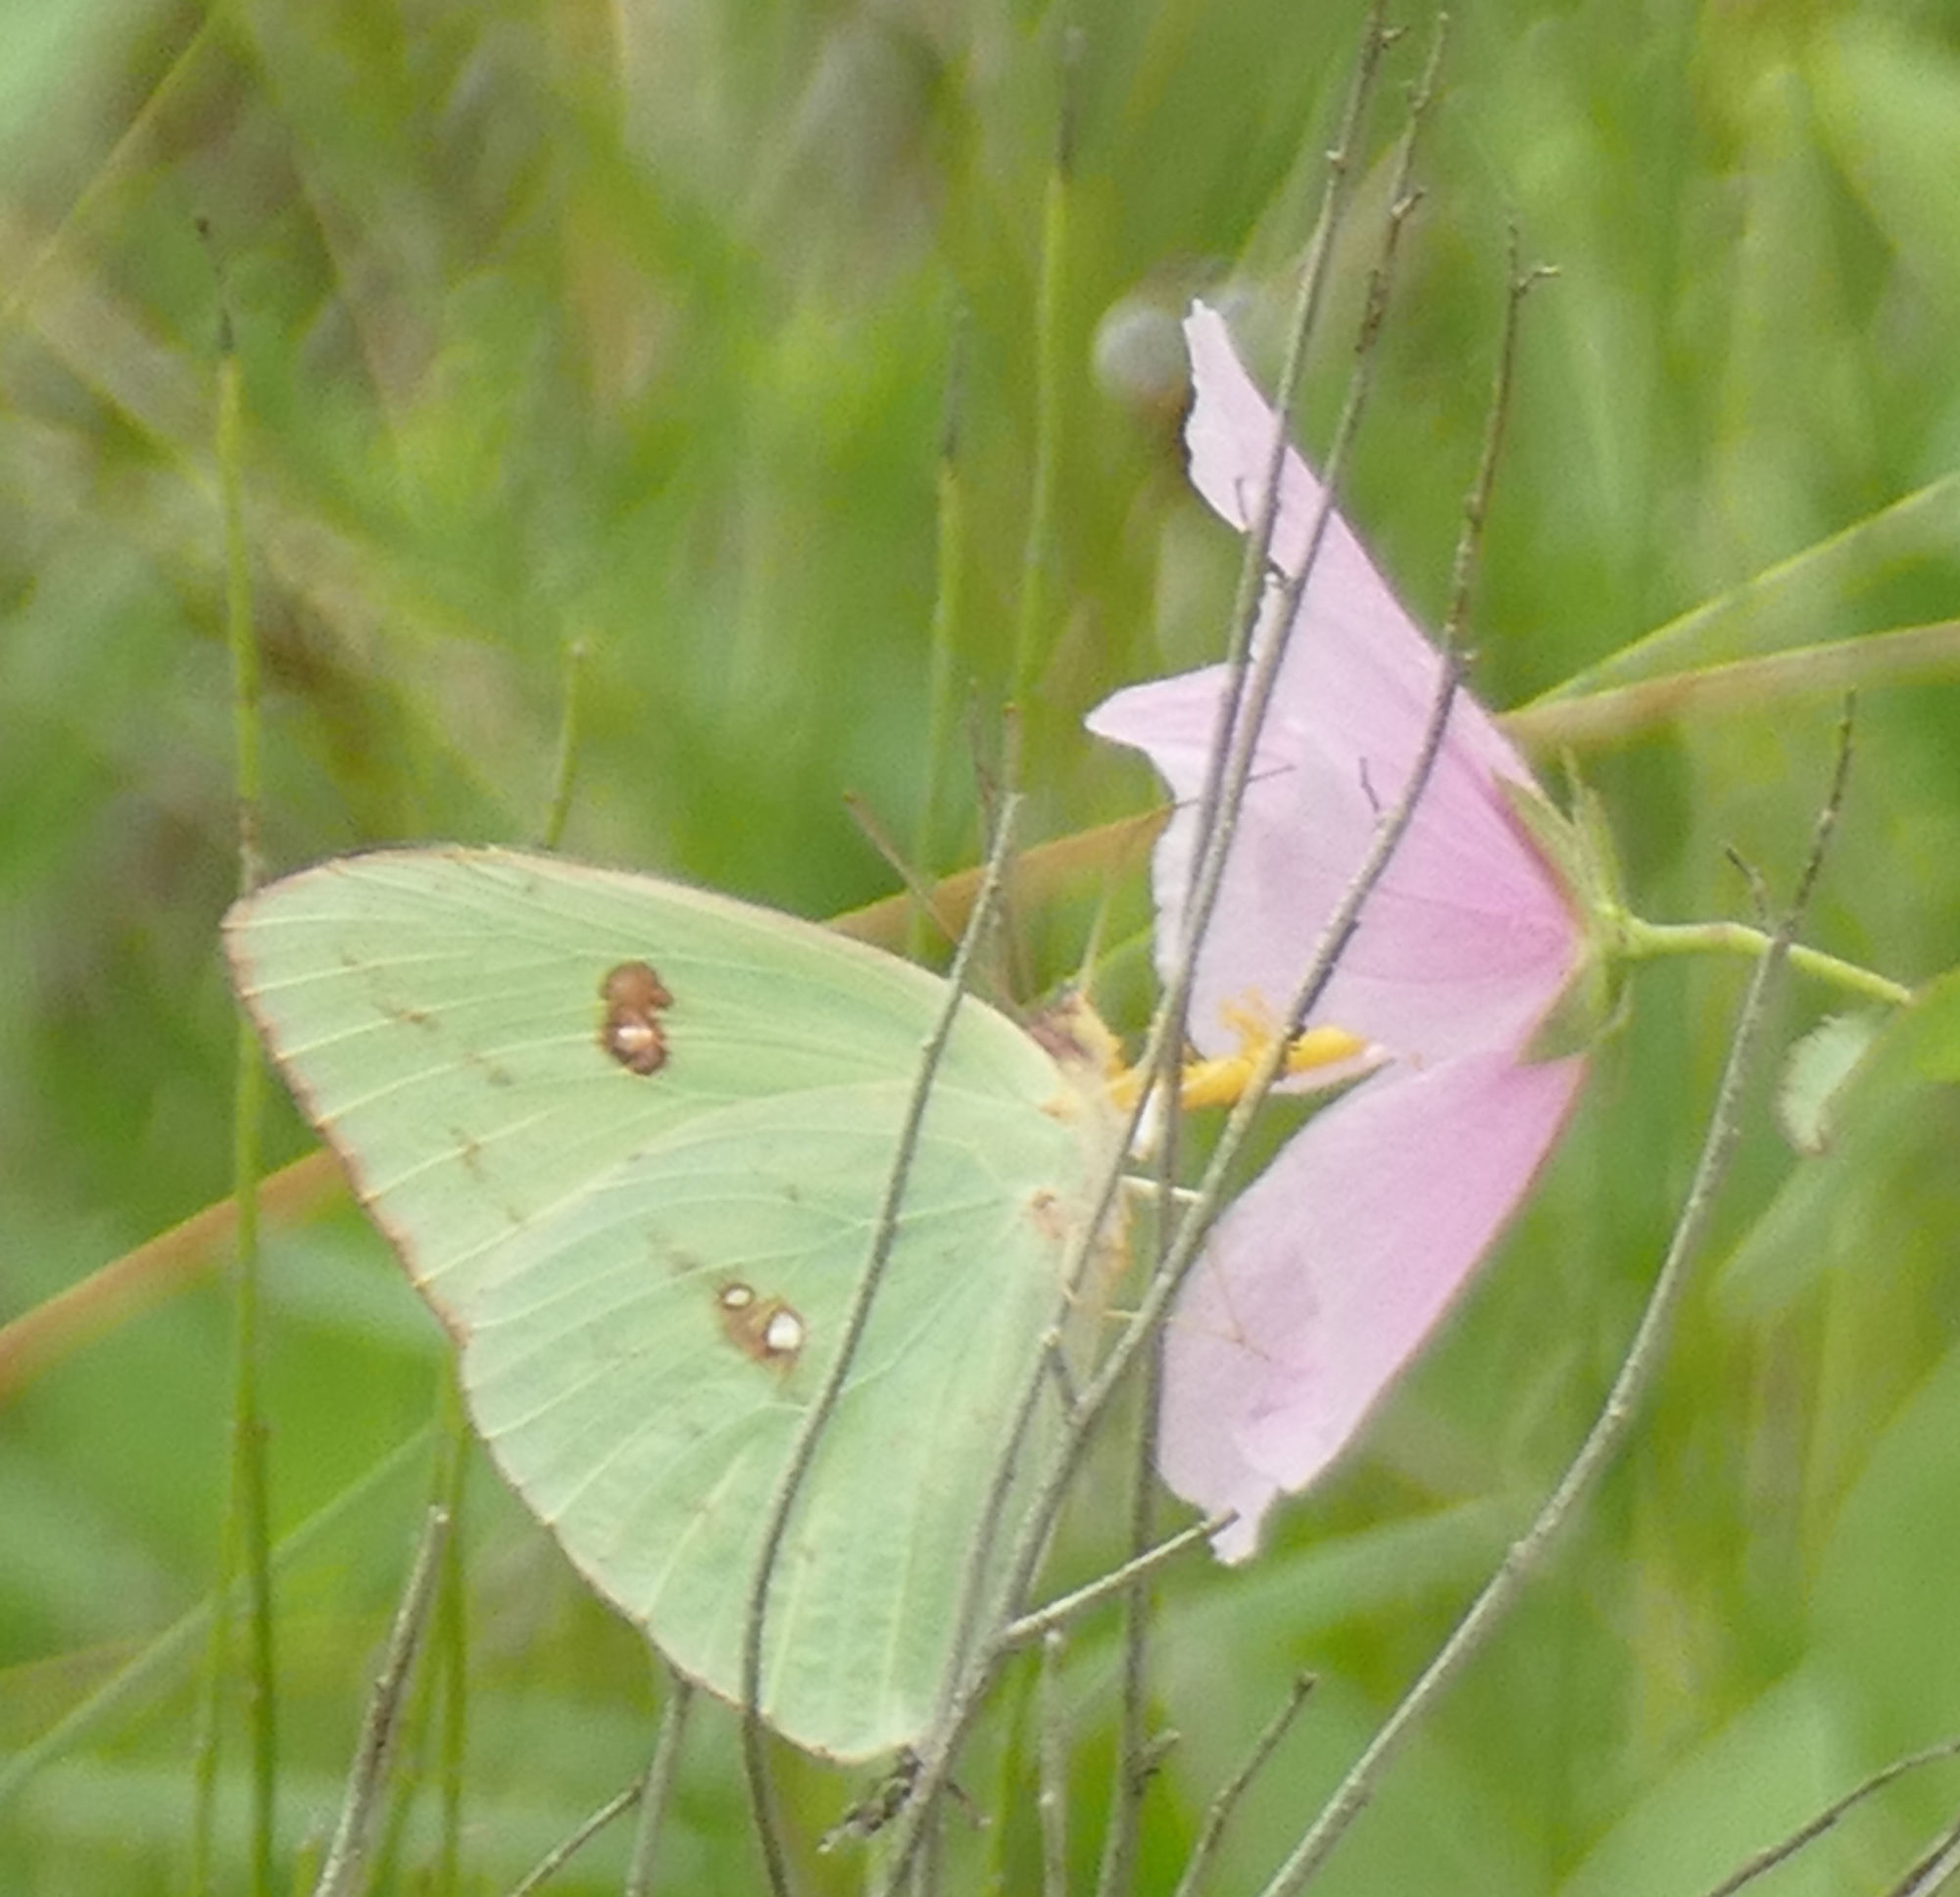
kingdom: Animalia
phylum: Arthropoda
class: Insecta
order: Lepidoptera
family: Pieridae
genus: Phoebis
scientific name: Phoebis sennae
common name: Cloudless sulphur
